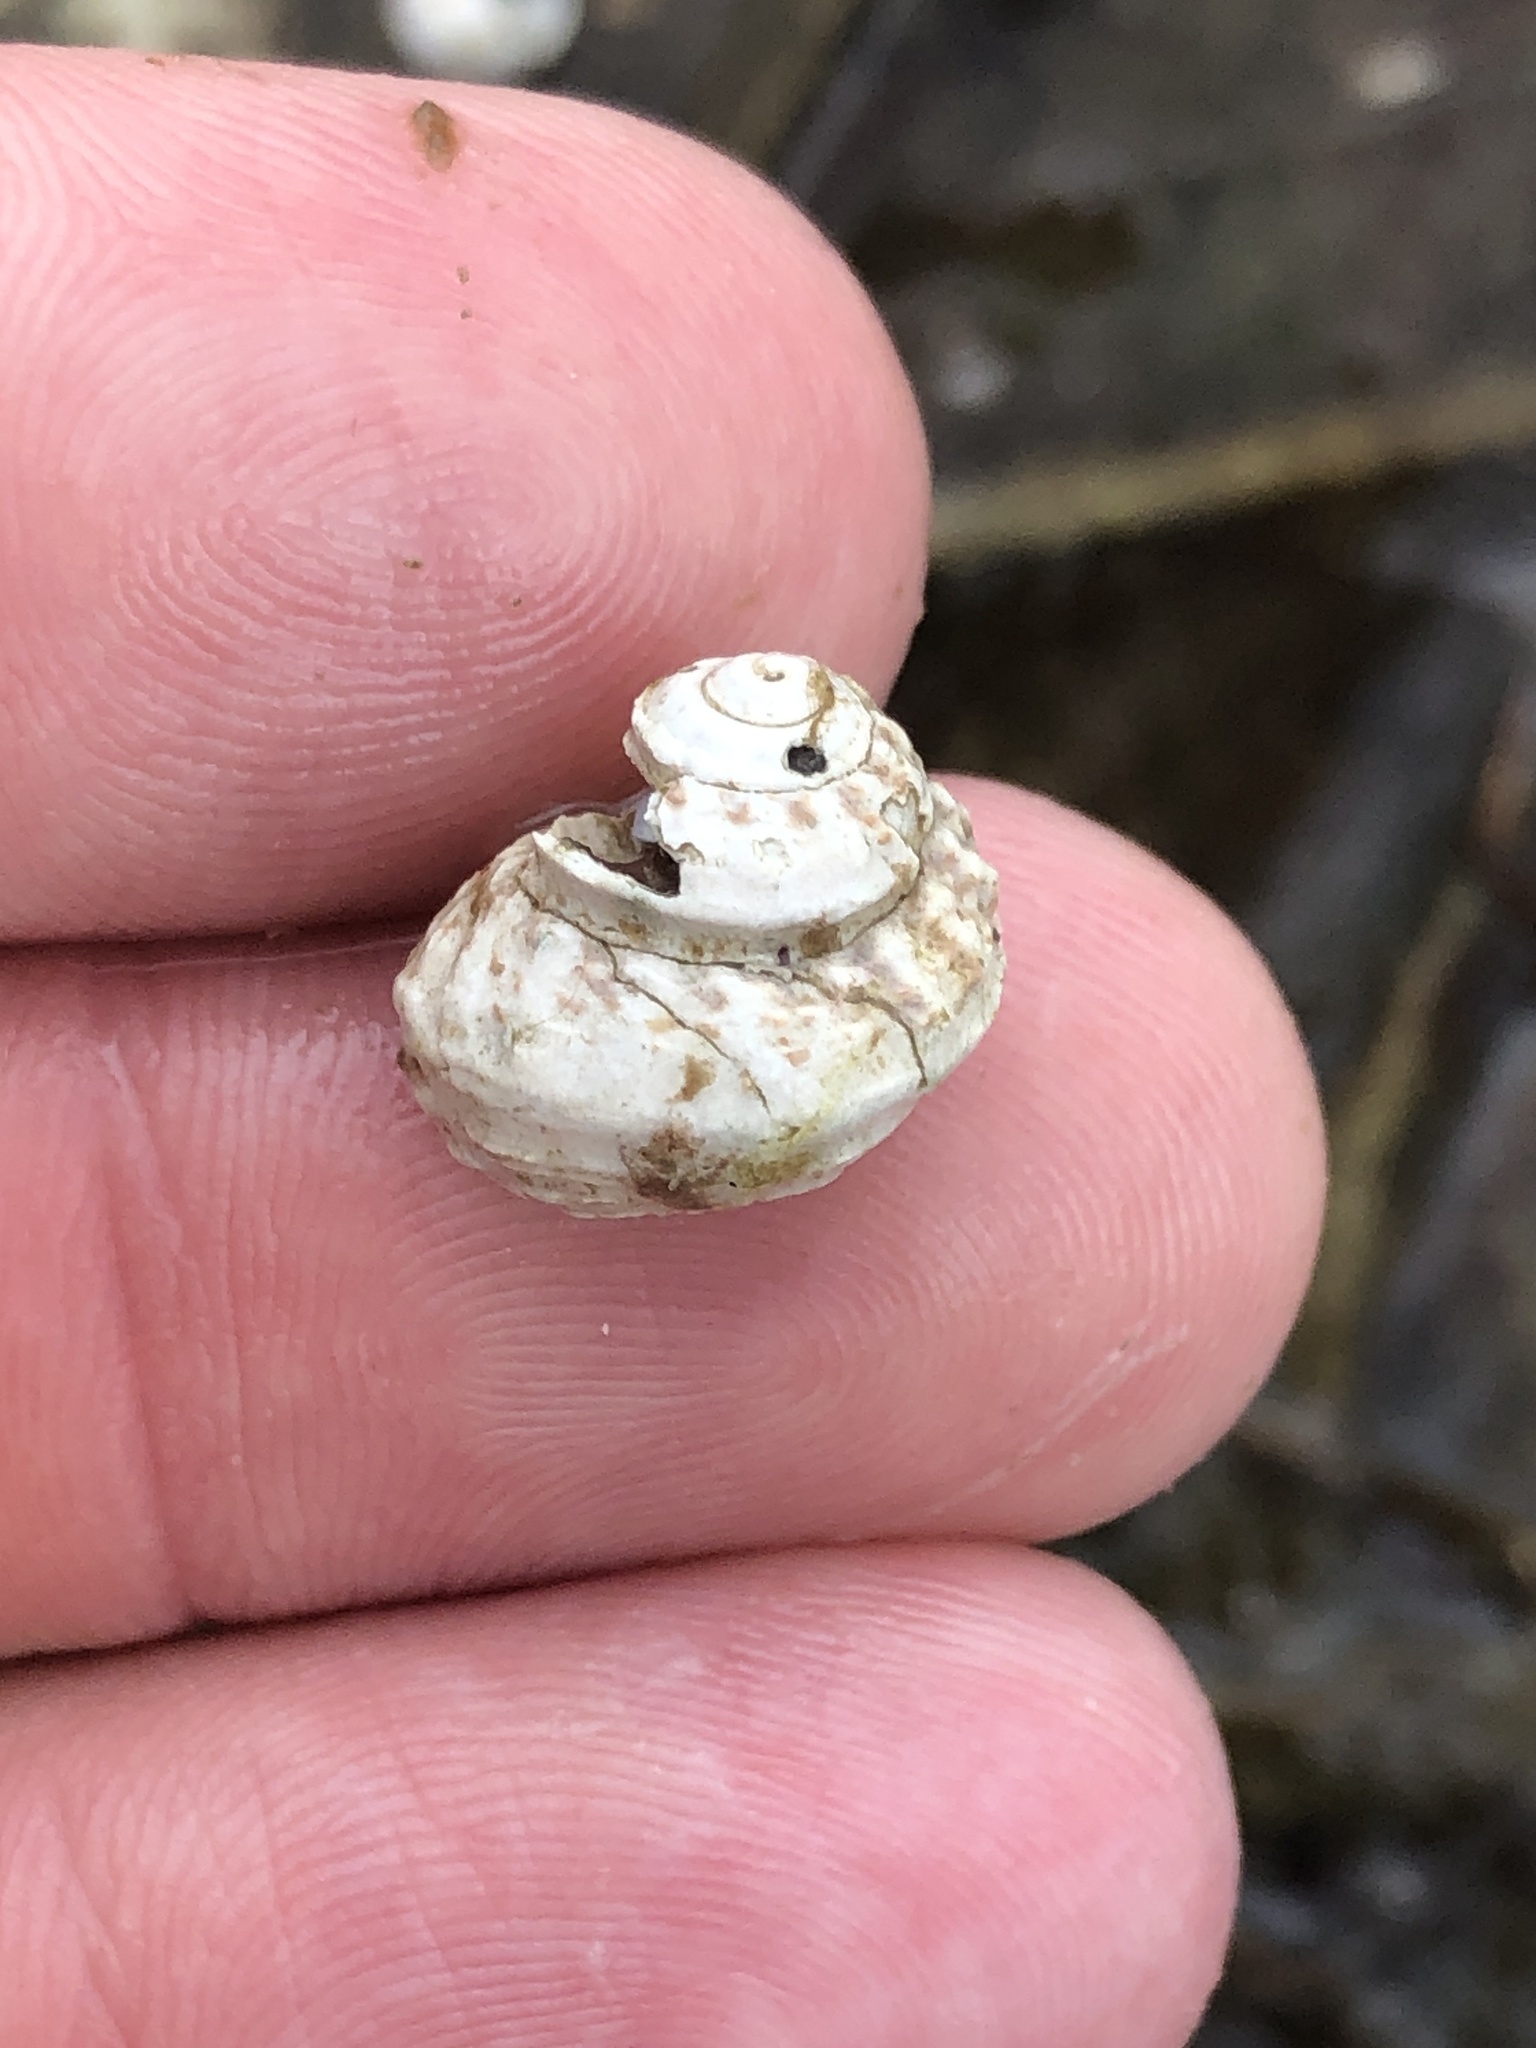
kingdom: Animalia
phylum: Mollusca
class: Gastropoda
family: Modulidae
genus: Modulus
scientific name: Modulus modulus
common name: Atlantic modulus
